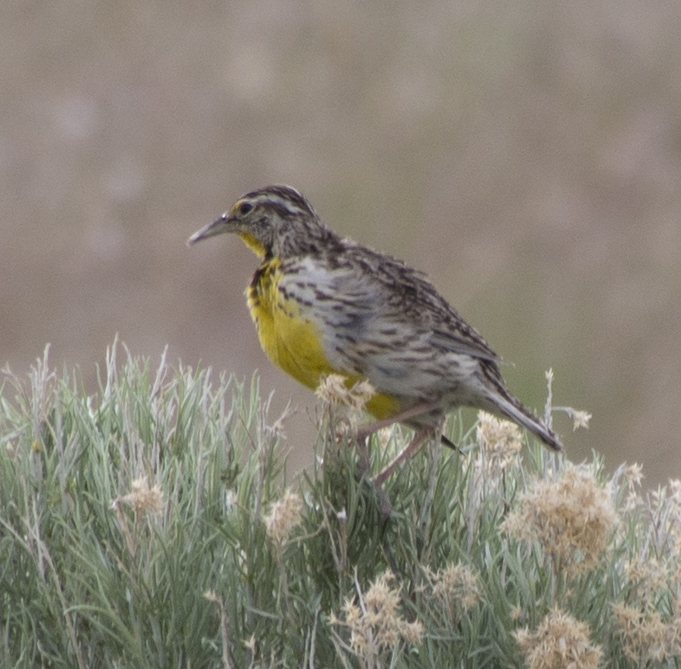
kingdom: Animalia
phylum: Chordata
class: Aves
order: Passeriformes
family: Icteridae
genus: Sturnella
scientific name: Sturnella neglecta
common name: Western meadowlark
